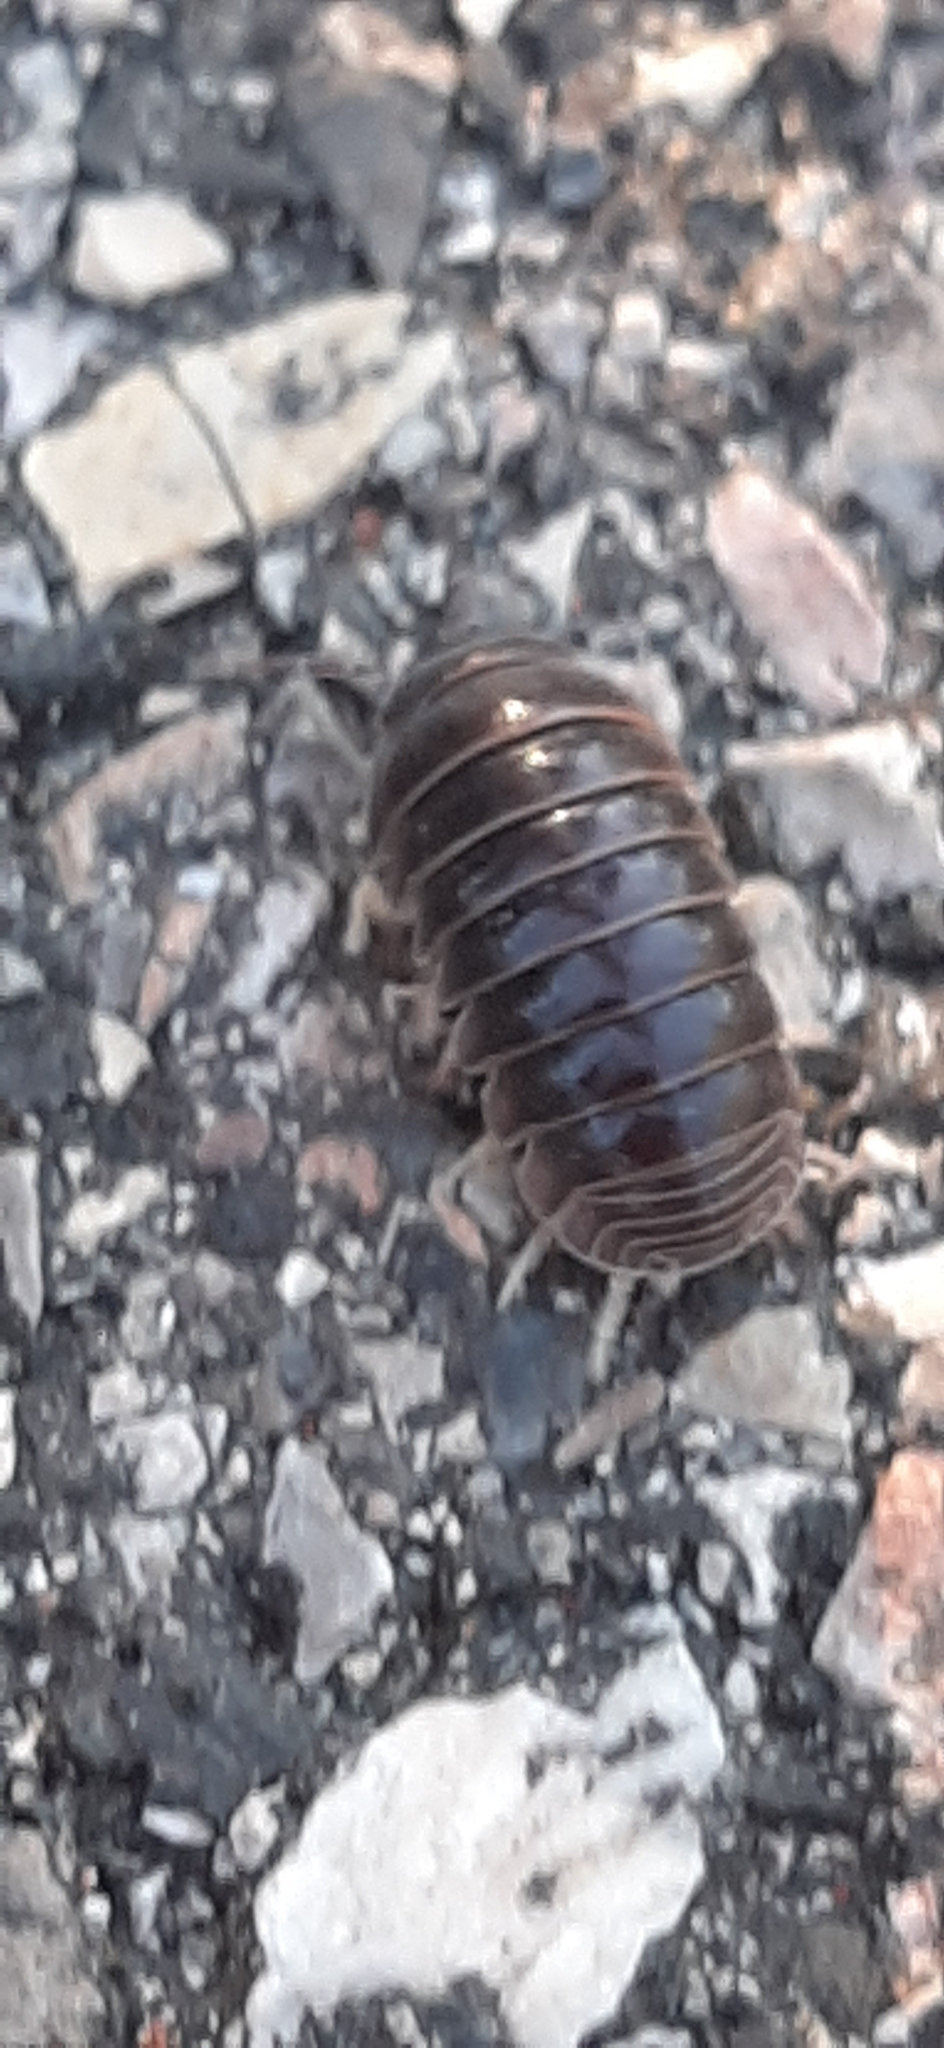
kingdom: Animalia
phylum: Arthropoda
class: Malacostraca
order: Isopoda
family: Armadillidiidae
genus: Armadillidium
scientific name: Armadillidium vulgare
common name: Common pill woodlouse
